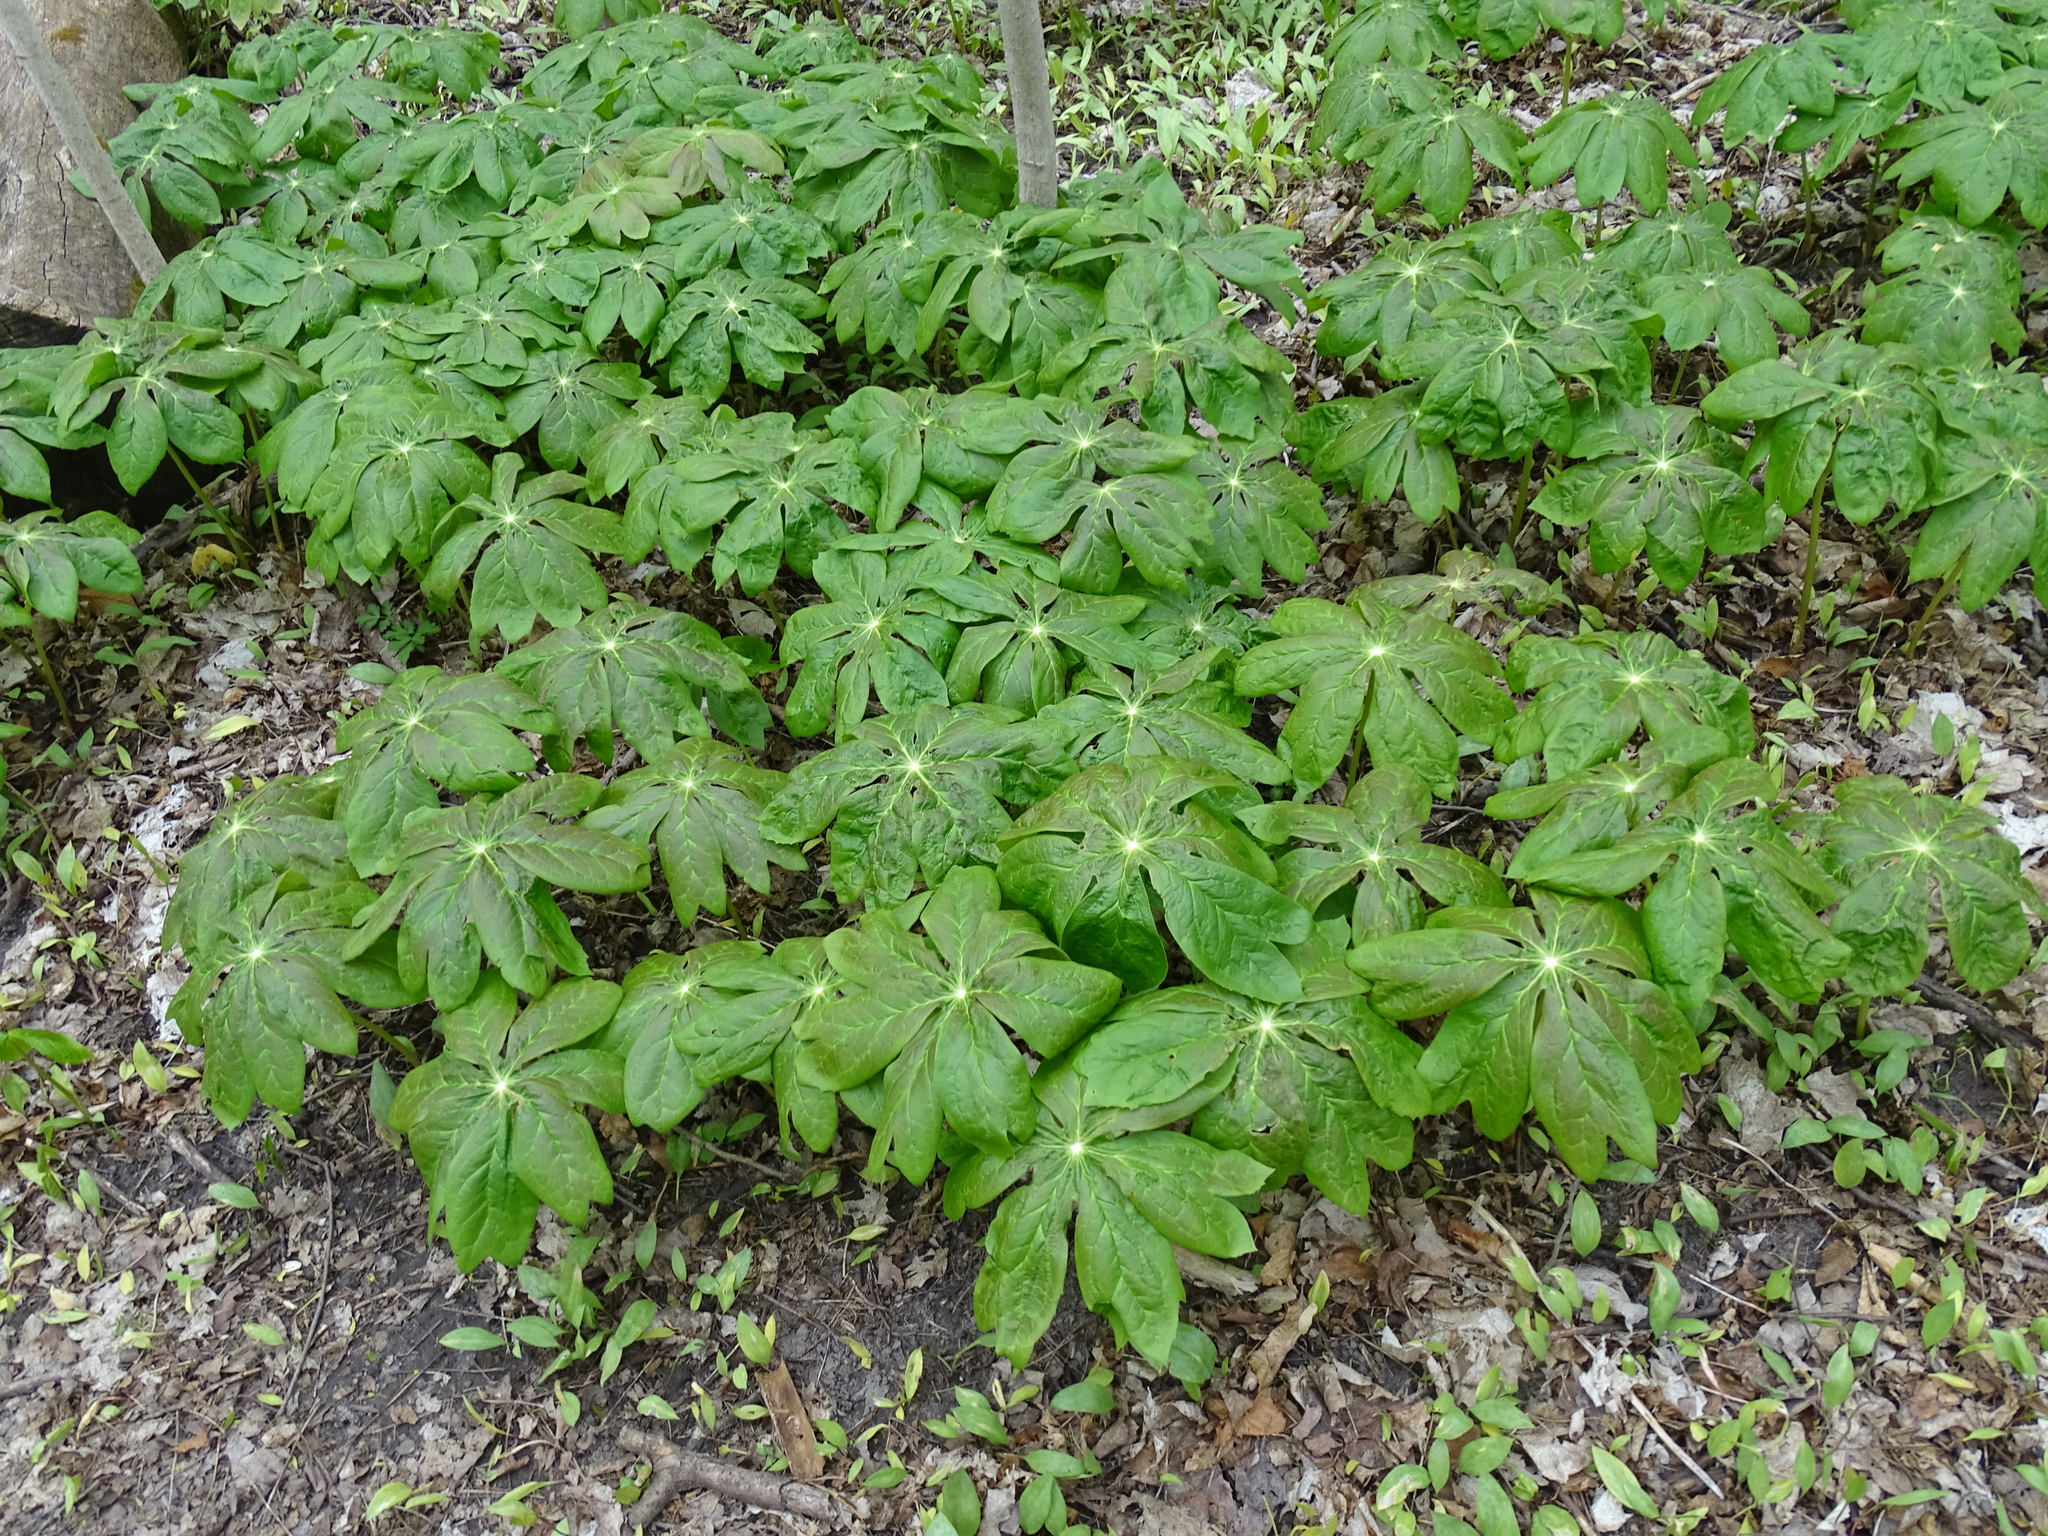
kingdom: Plantae
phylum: Tracheophyta
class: Magnoliopsida
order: Ranunculales
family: Berberidaceae
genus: Podophyllum
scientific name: Podophyllum peltatum
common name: Wild mandrake
